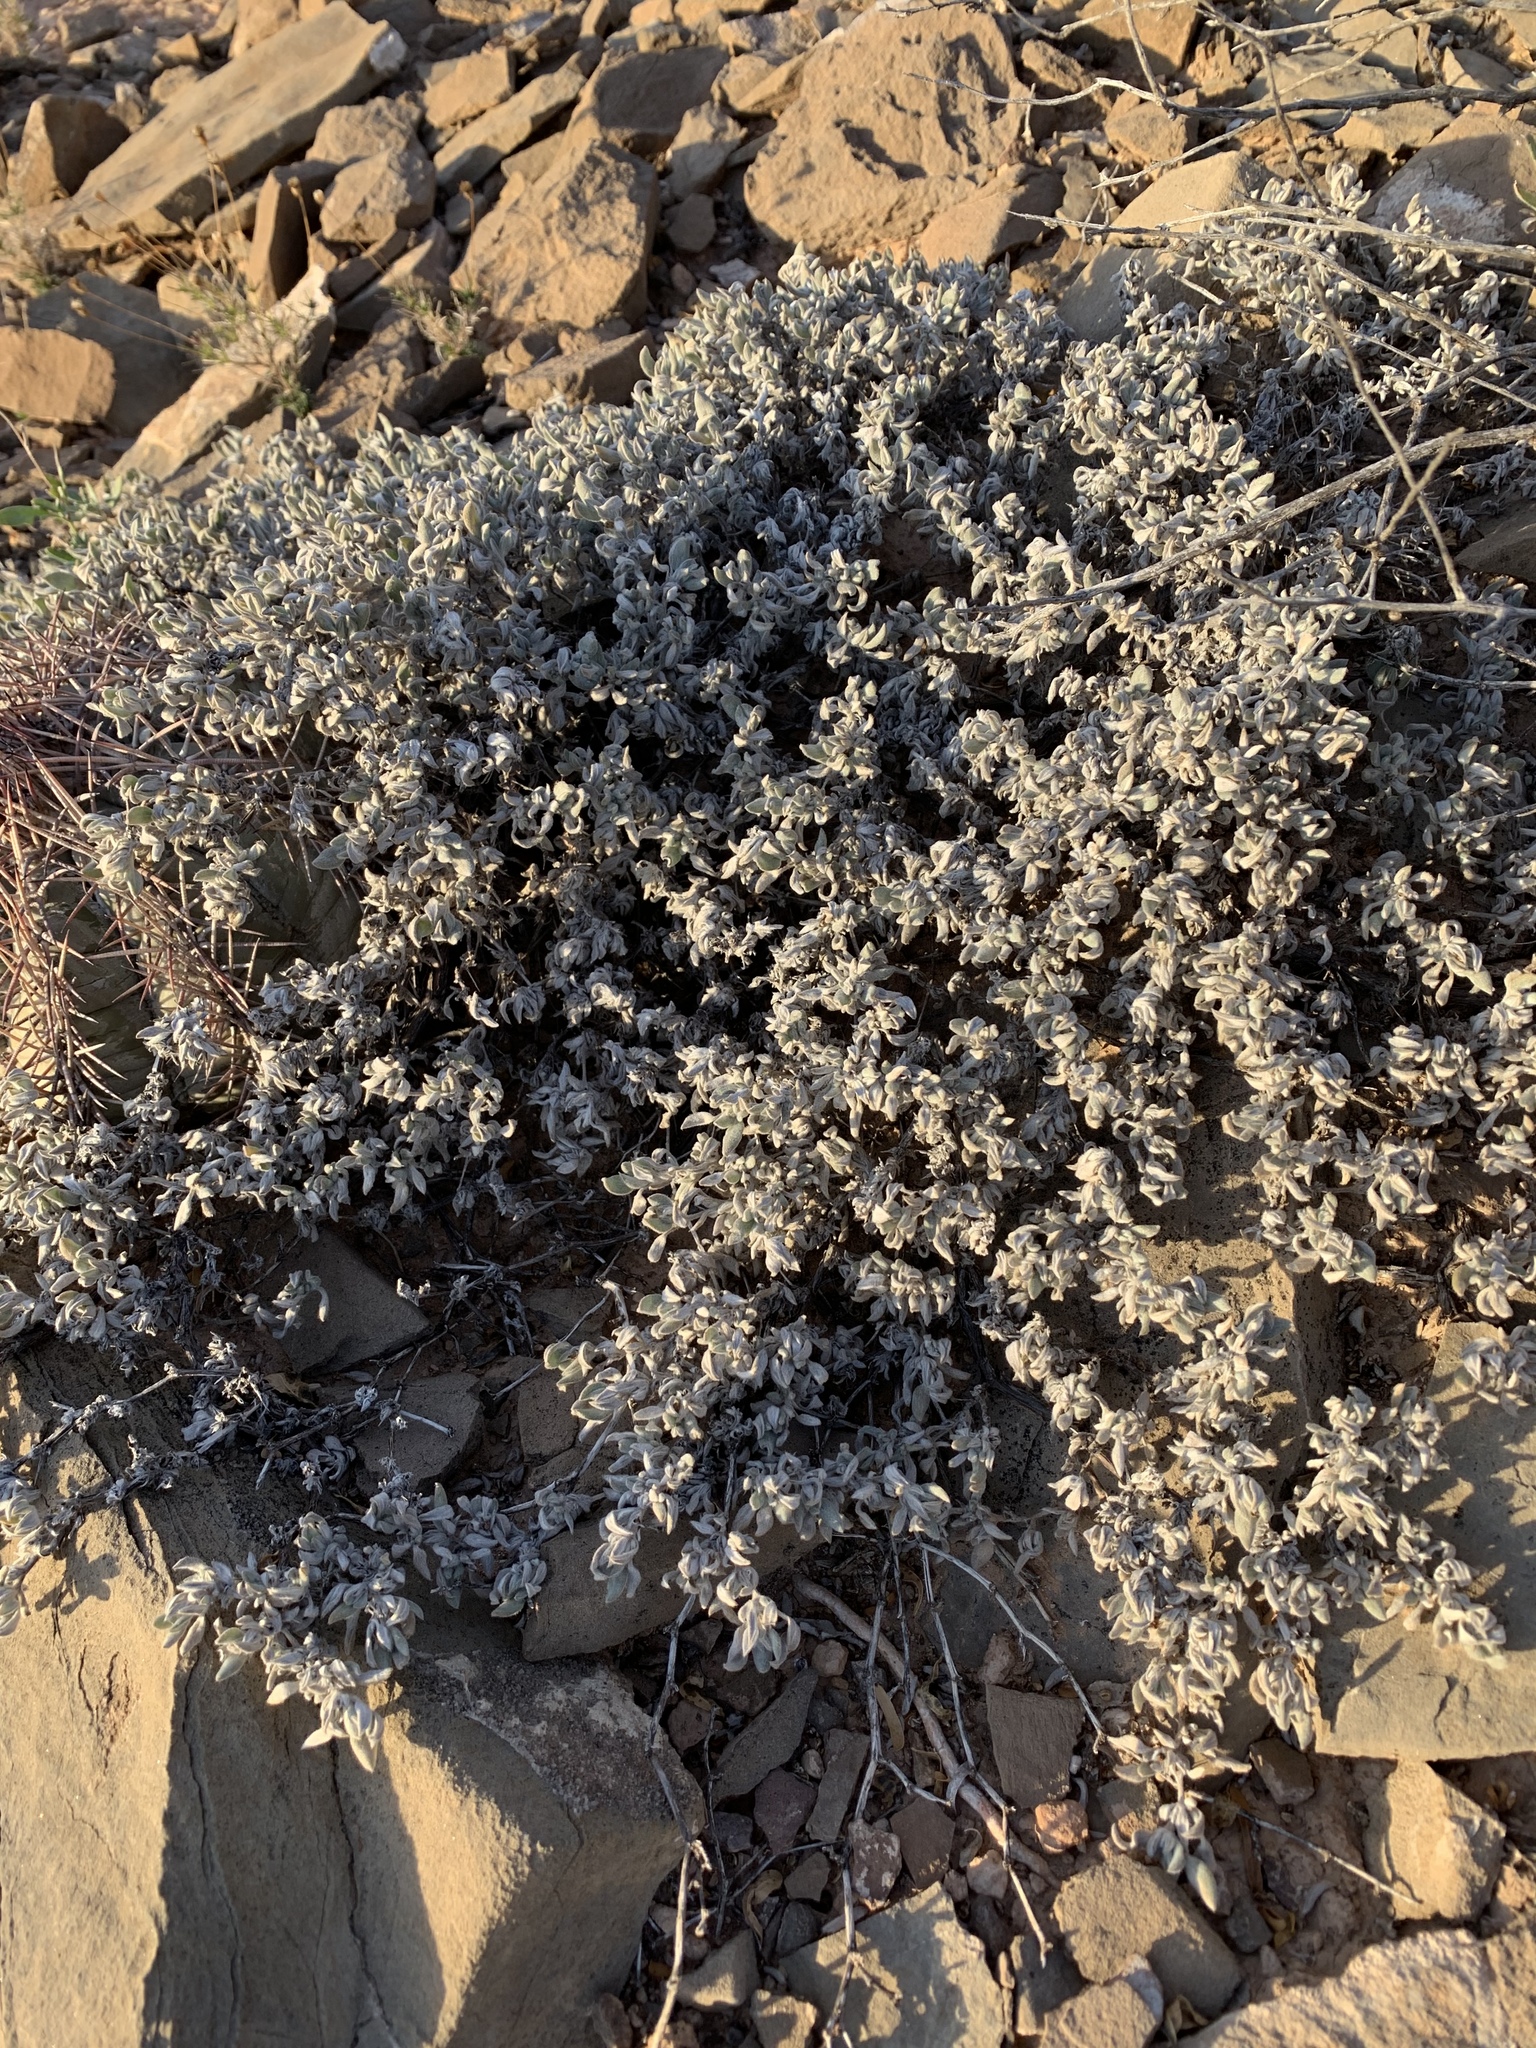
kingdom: Plantae
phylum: Tracheophyta
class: Magnoliopsida
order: Boraginales
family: Ehretiaceae
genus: Tiquilia
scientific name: Tiquilia canescens
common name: Hairy tiquilia
